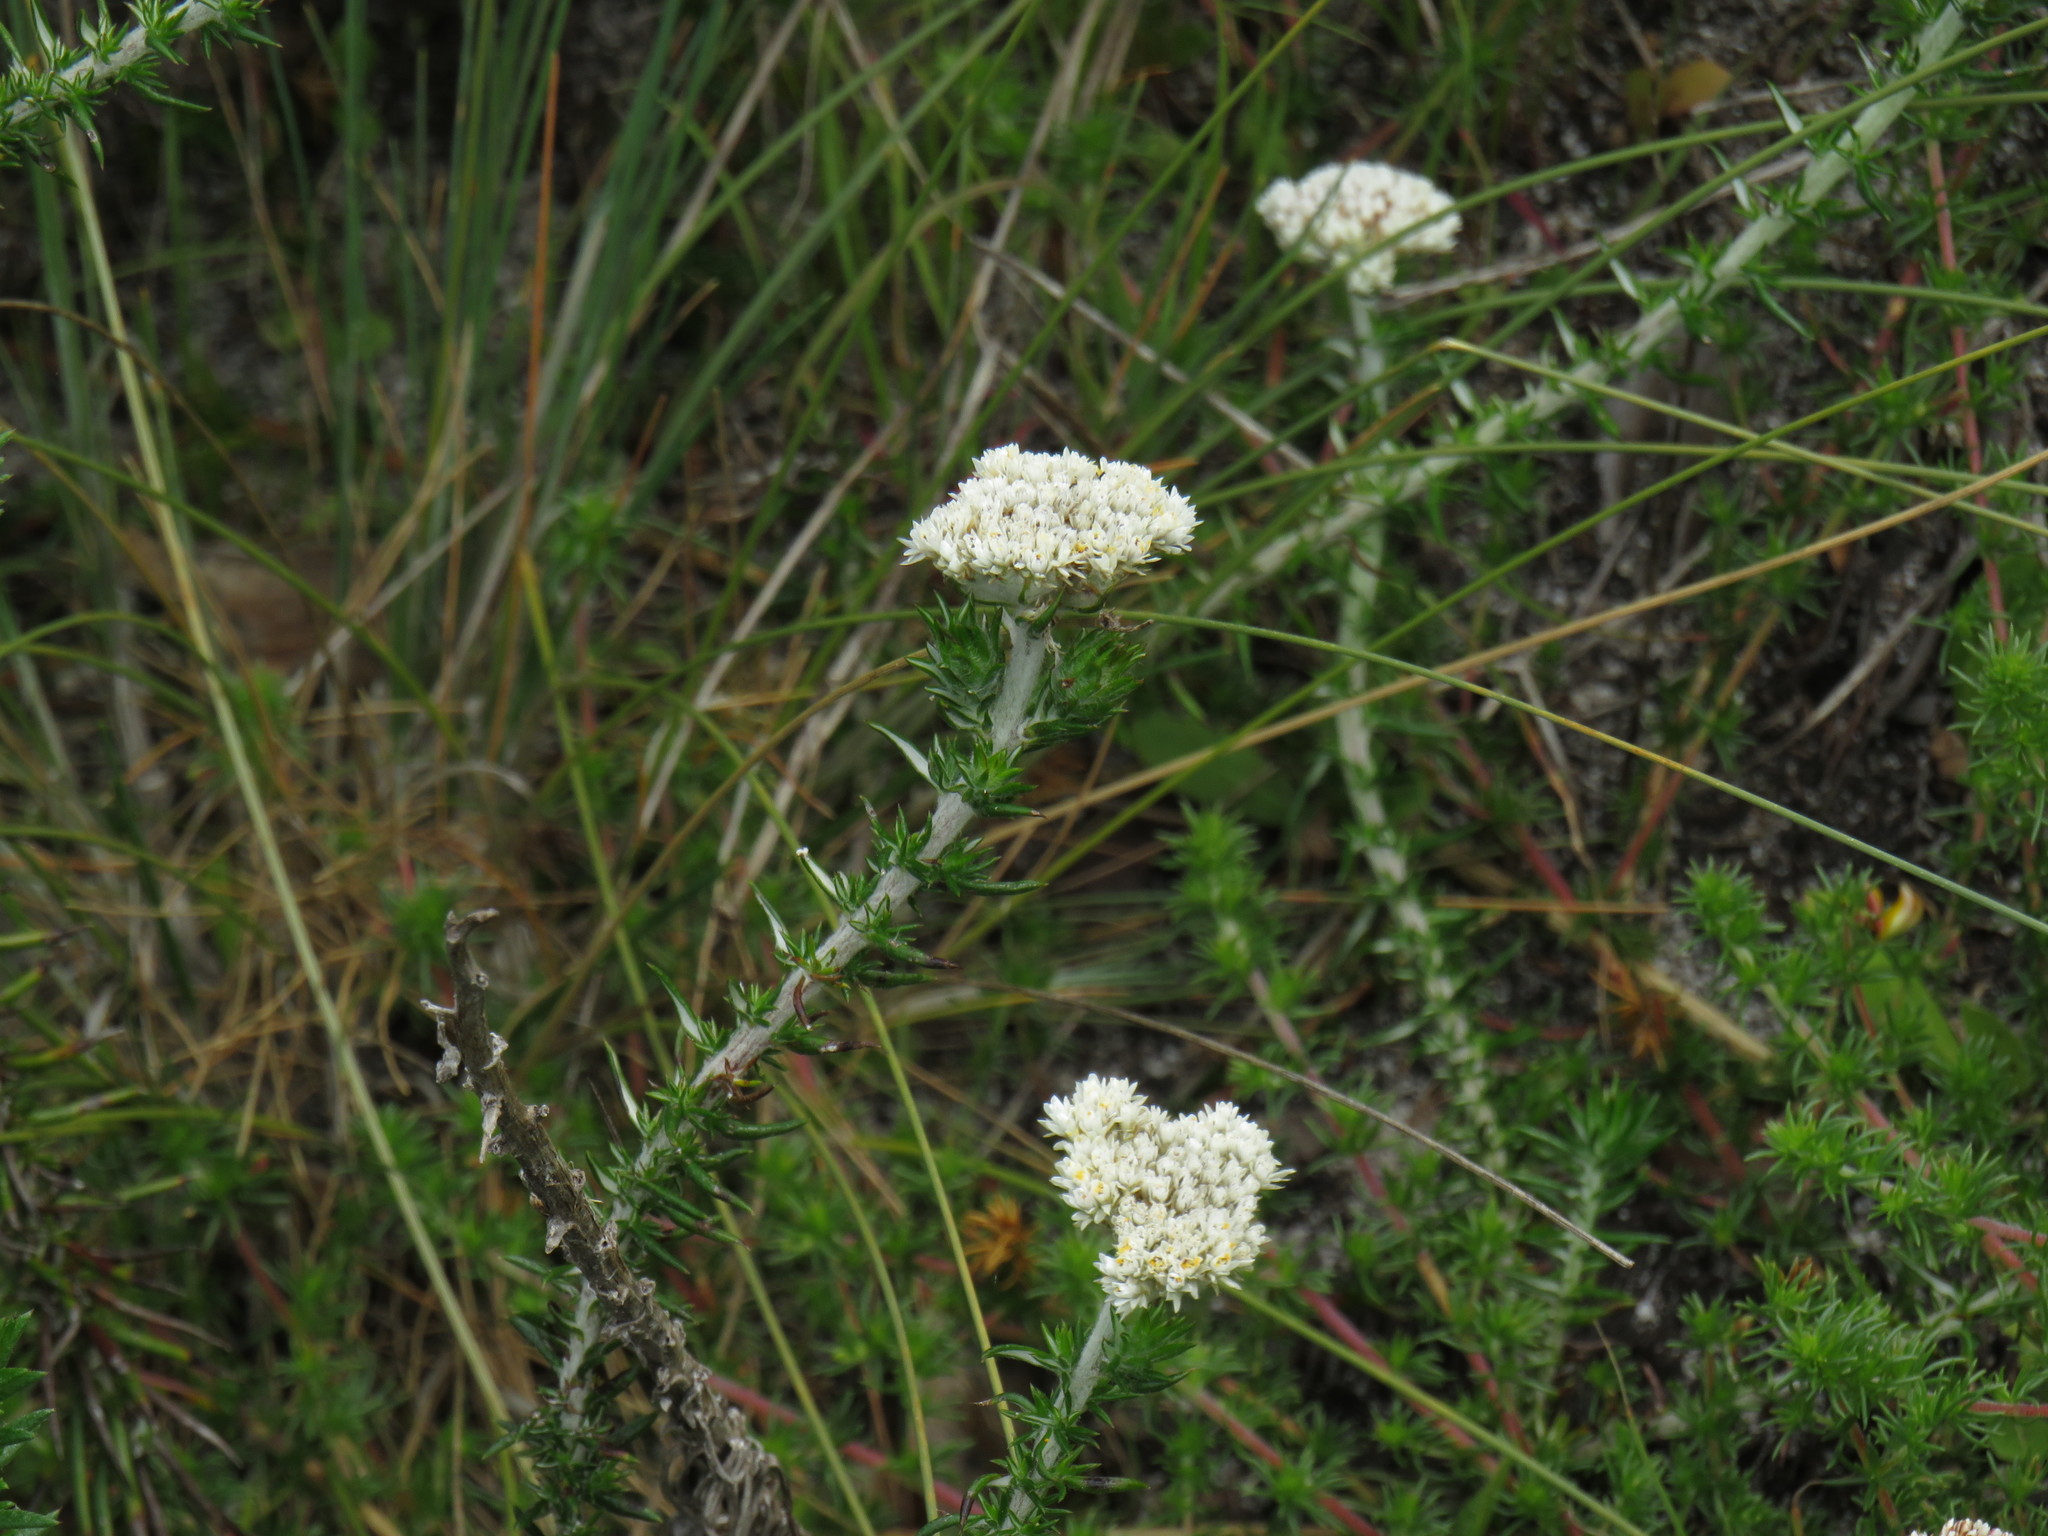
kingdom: Plantae
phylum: Tracheophyta
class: Magnoliopsida
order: Asterales
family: Asteraceae
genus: Metalasia
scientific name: Metalasia pulchella
